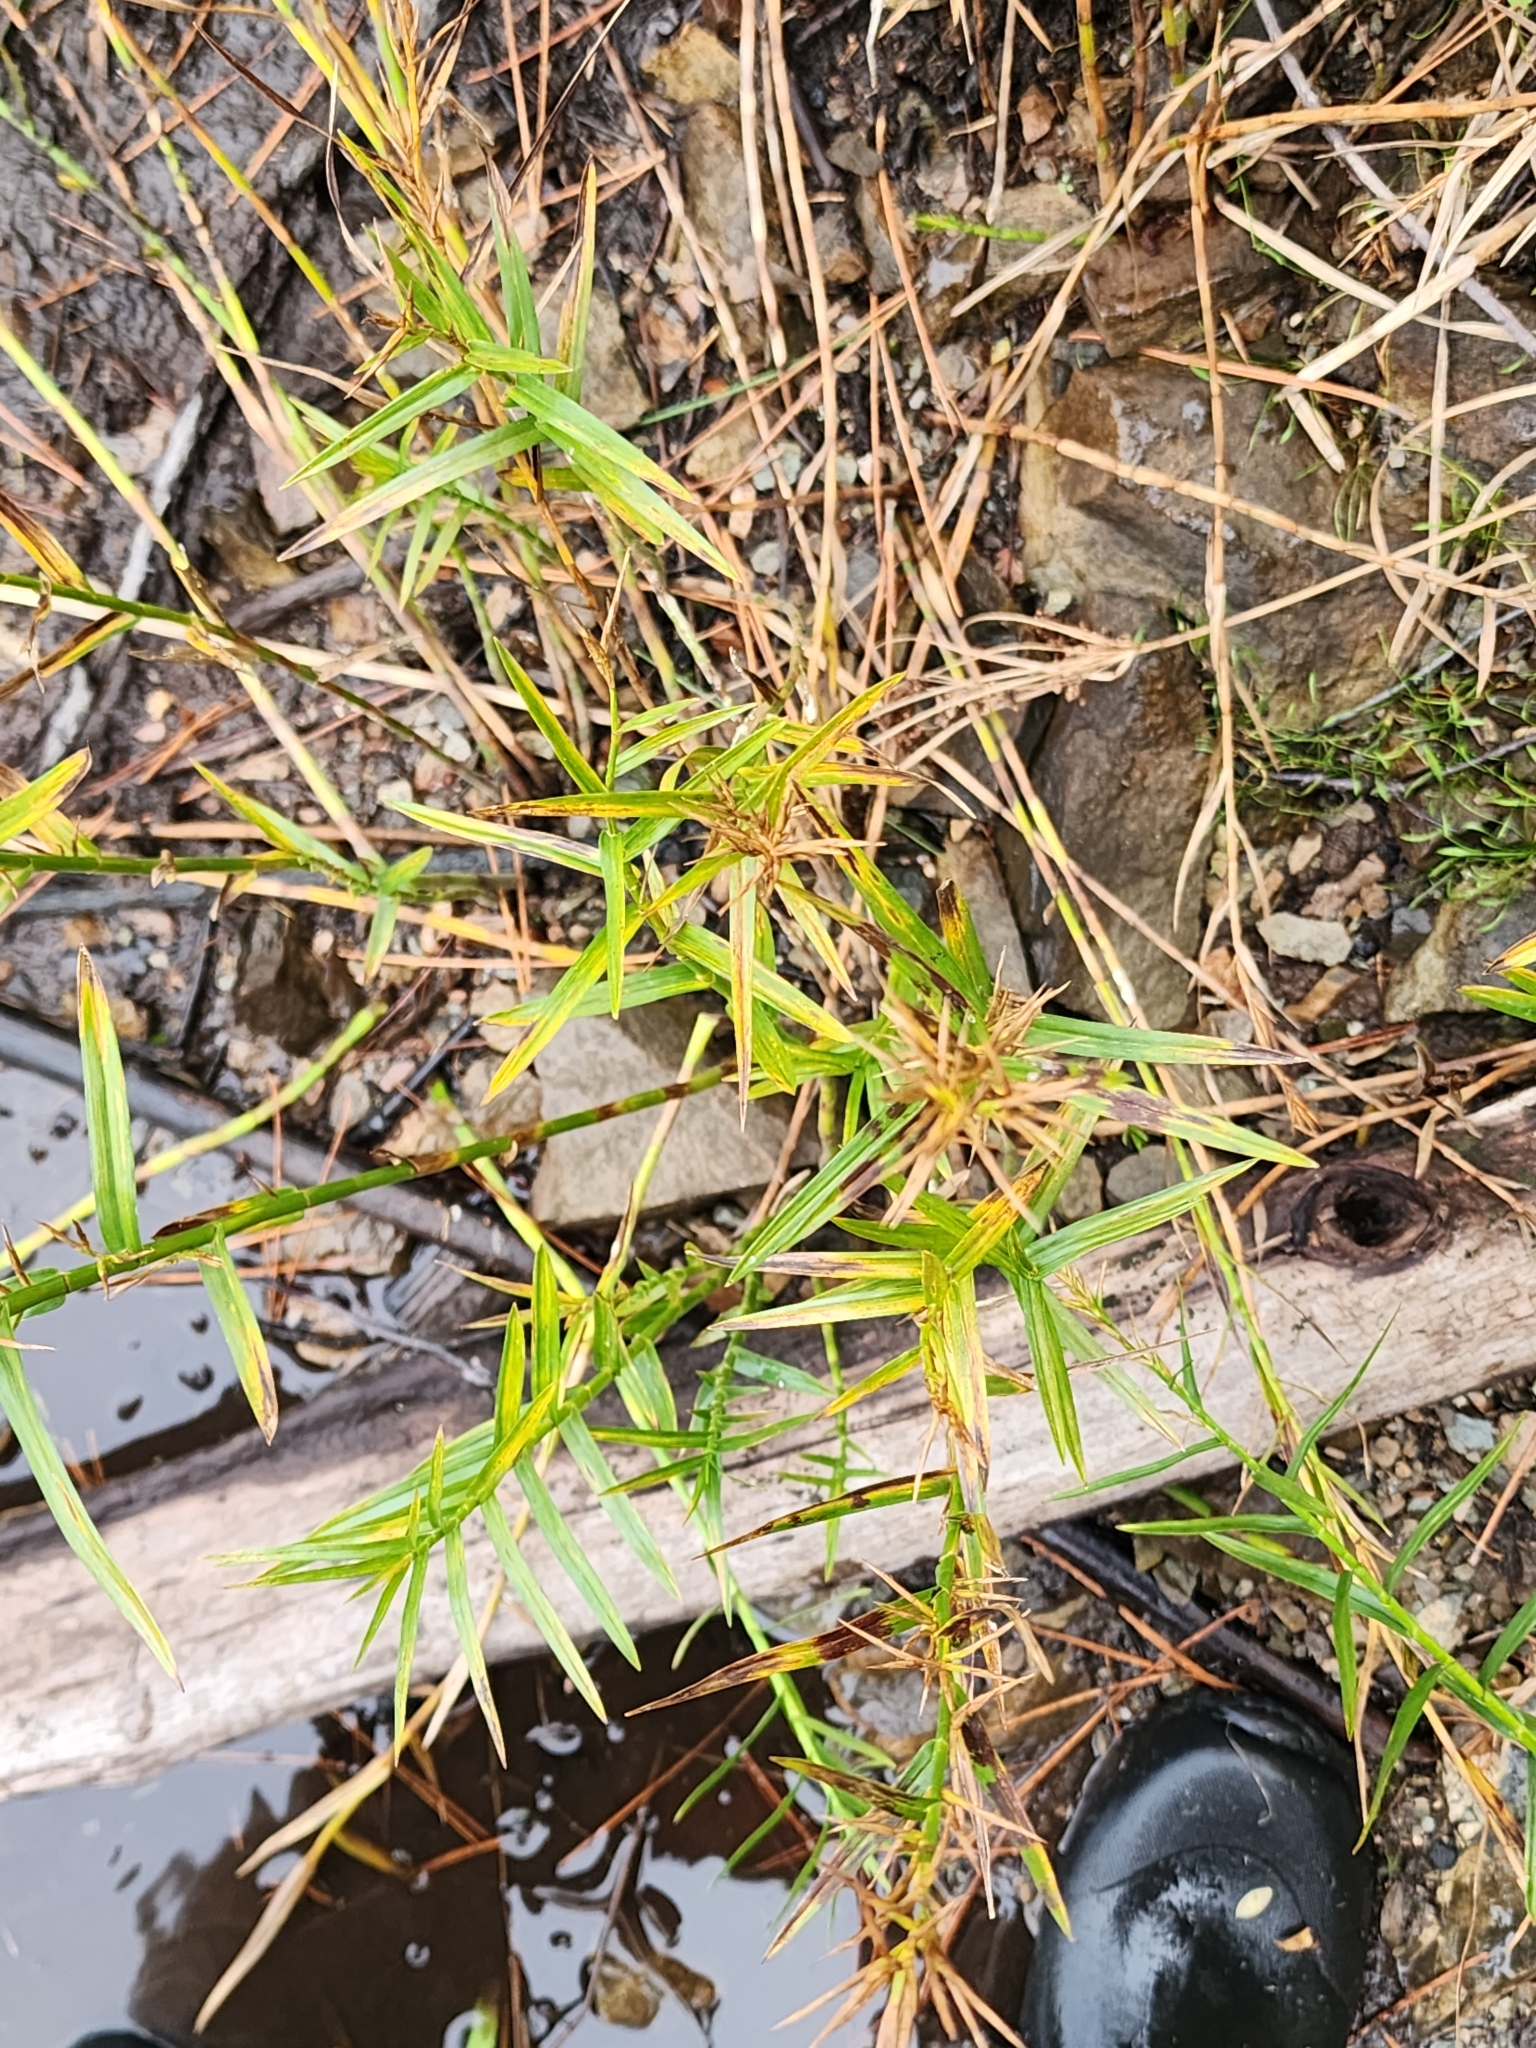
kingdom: Plantae
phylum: Tracheophyta
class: Liliopsida
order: Poales
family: Cyperaceae
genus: Dulichium
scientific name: Dulichium arundinaceum
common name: Three-way sedge
